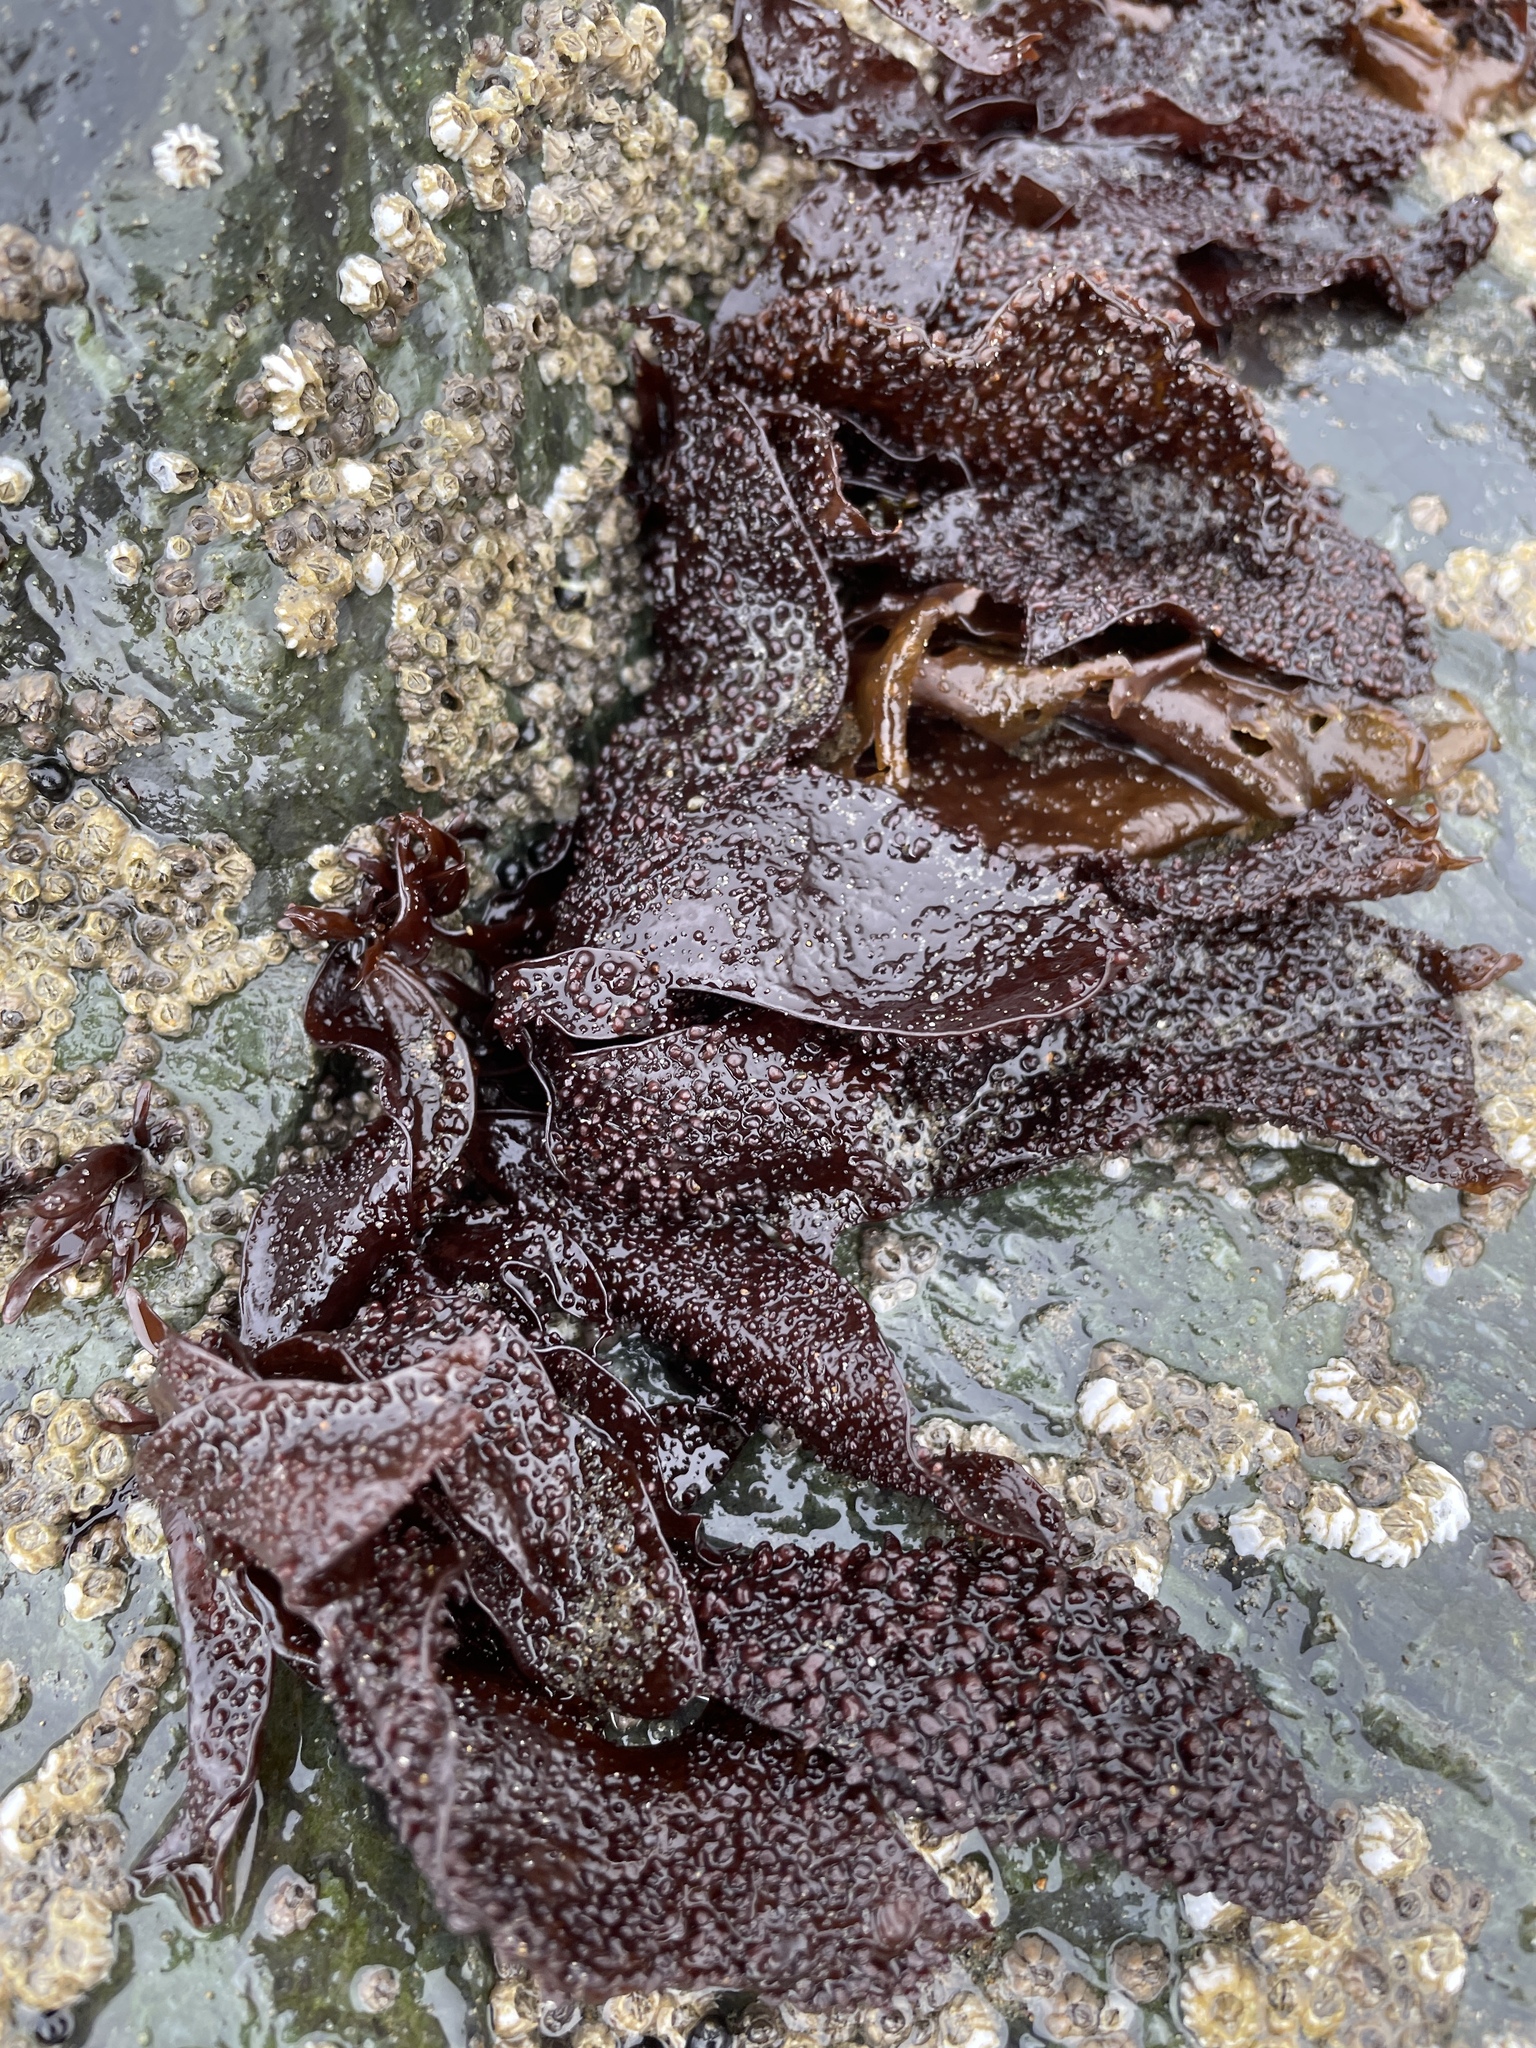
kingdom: Plantae
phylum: Rhodophyta
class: Florideophyceae
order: Gigartinales
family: Phyllophoraceae
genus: Mastocarpus
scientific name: Mastocarpus papillatus
